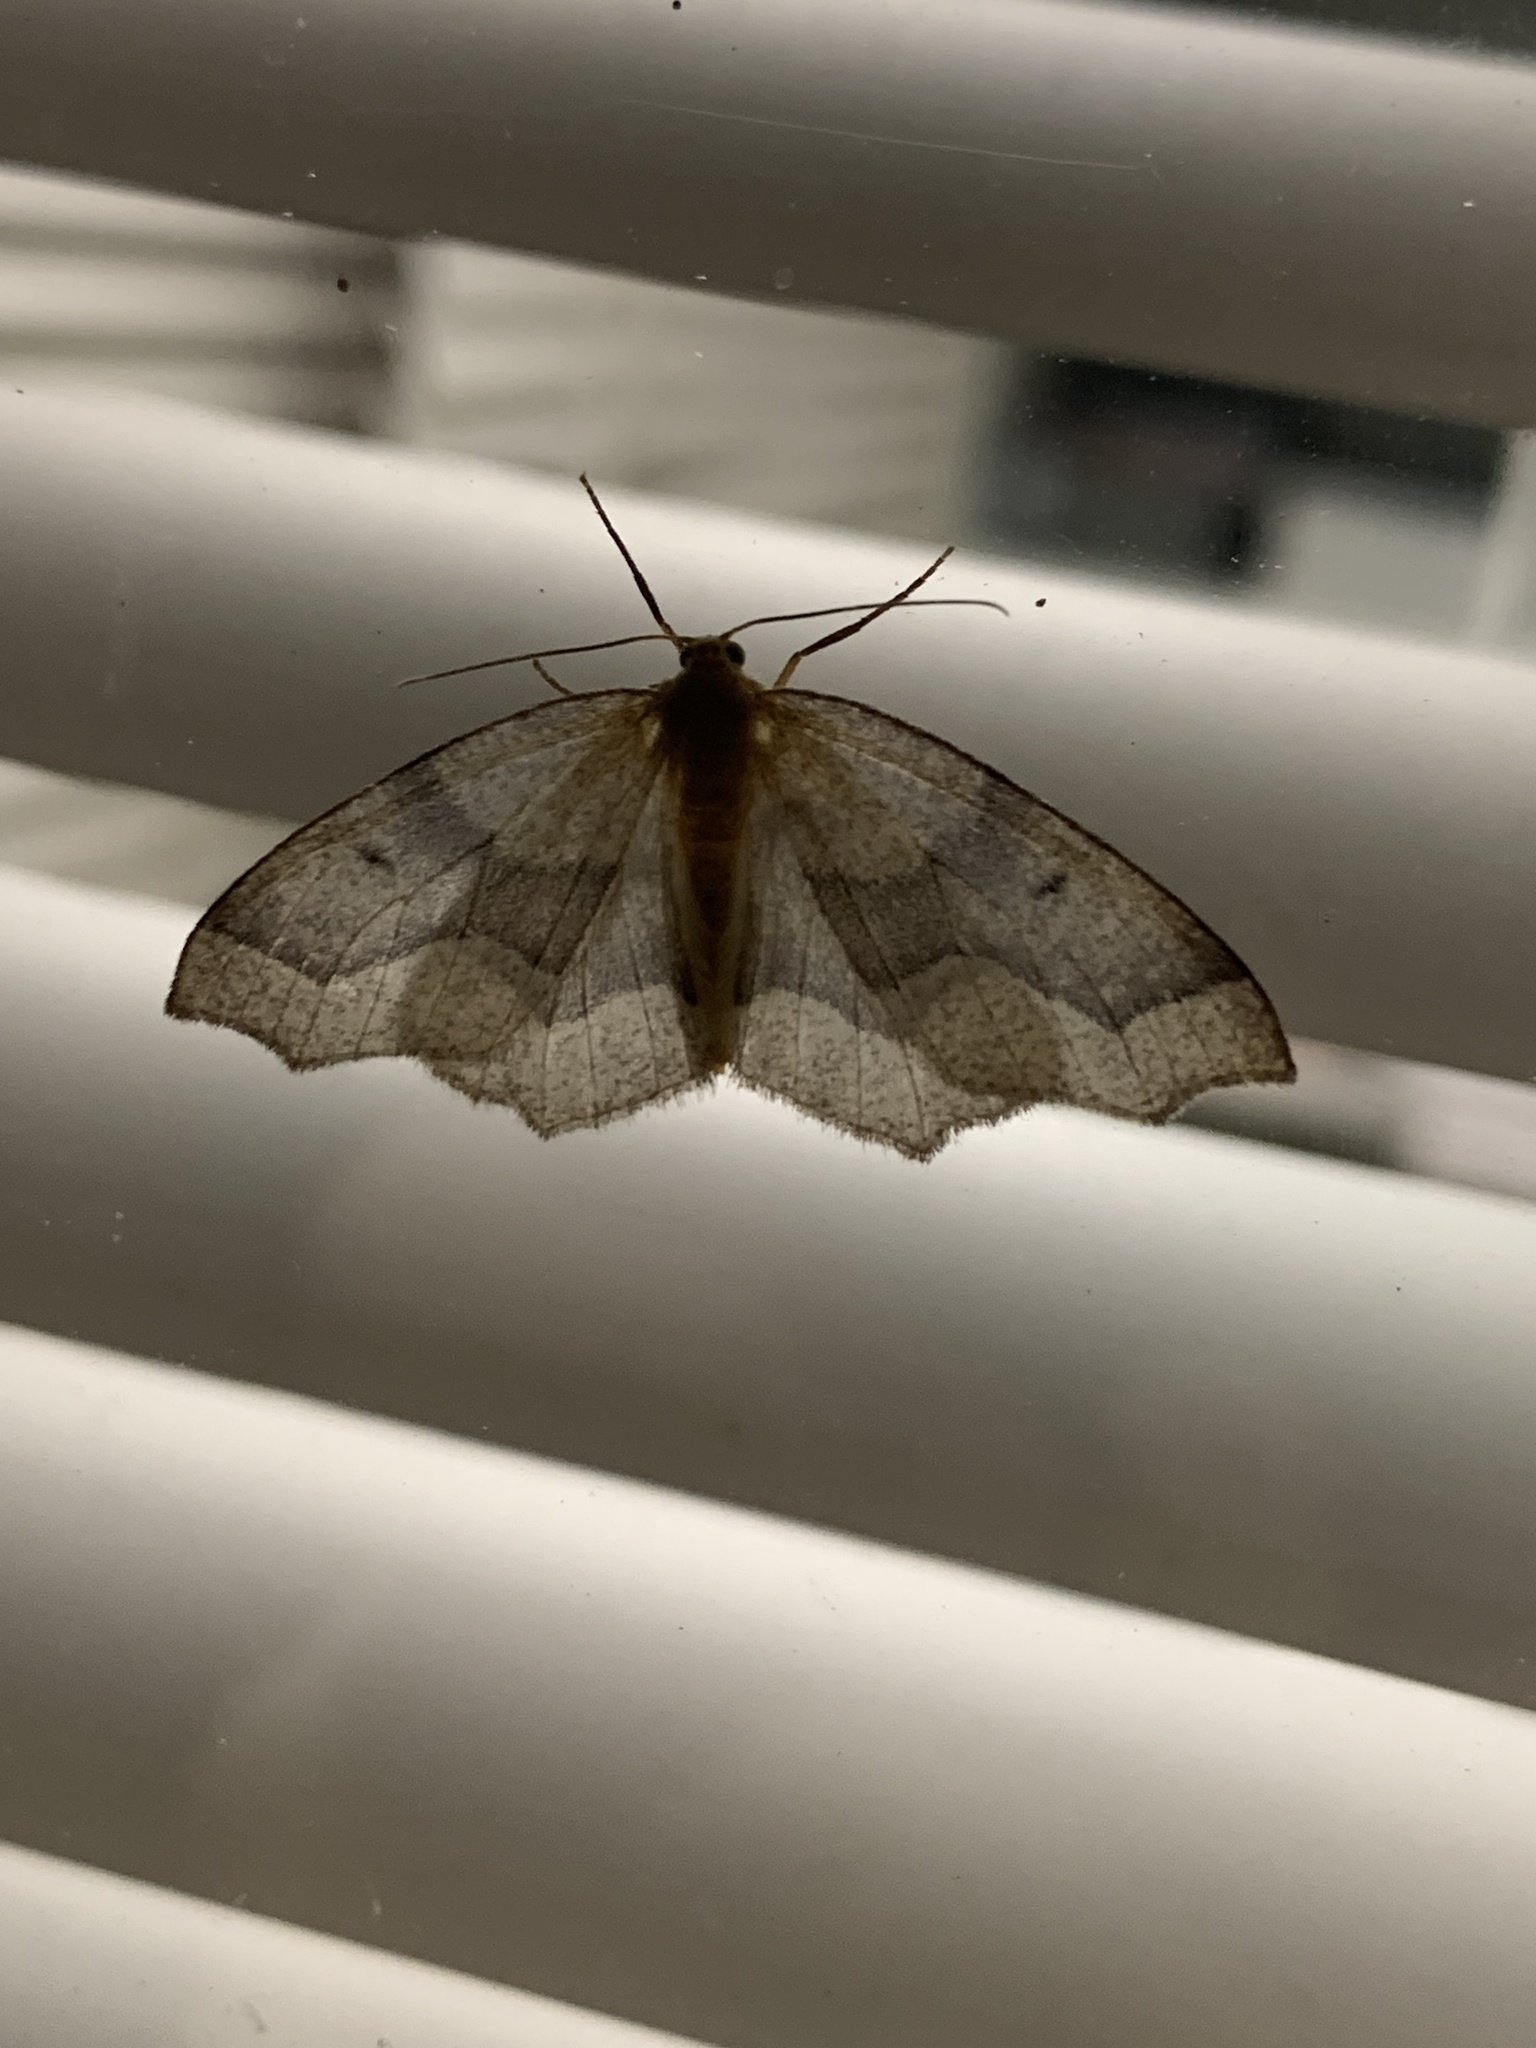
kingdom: Animalia
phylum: Arthropoda
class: Insecta
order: Lepidoptera
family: Geometridae
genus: Lambdina
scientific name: Lambdina fiscellaria
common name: Hemlock looper
